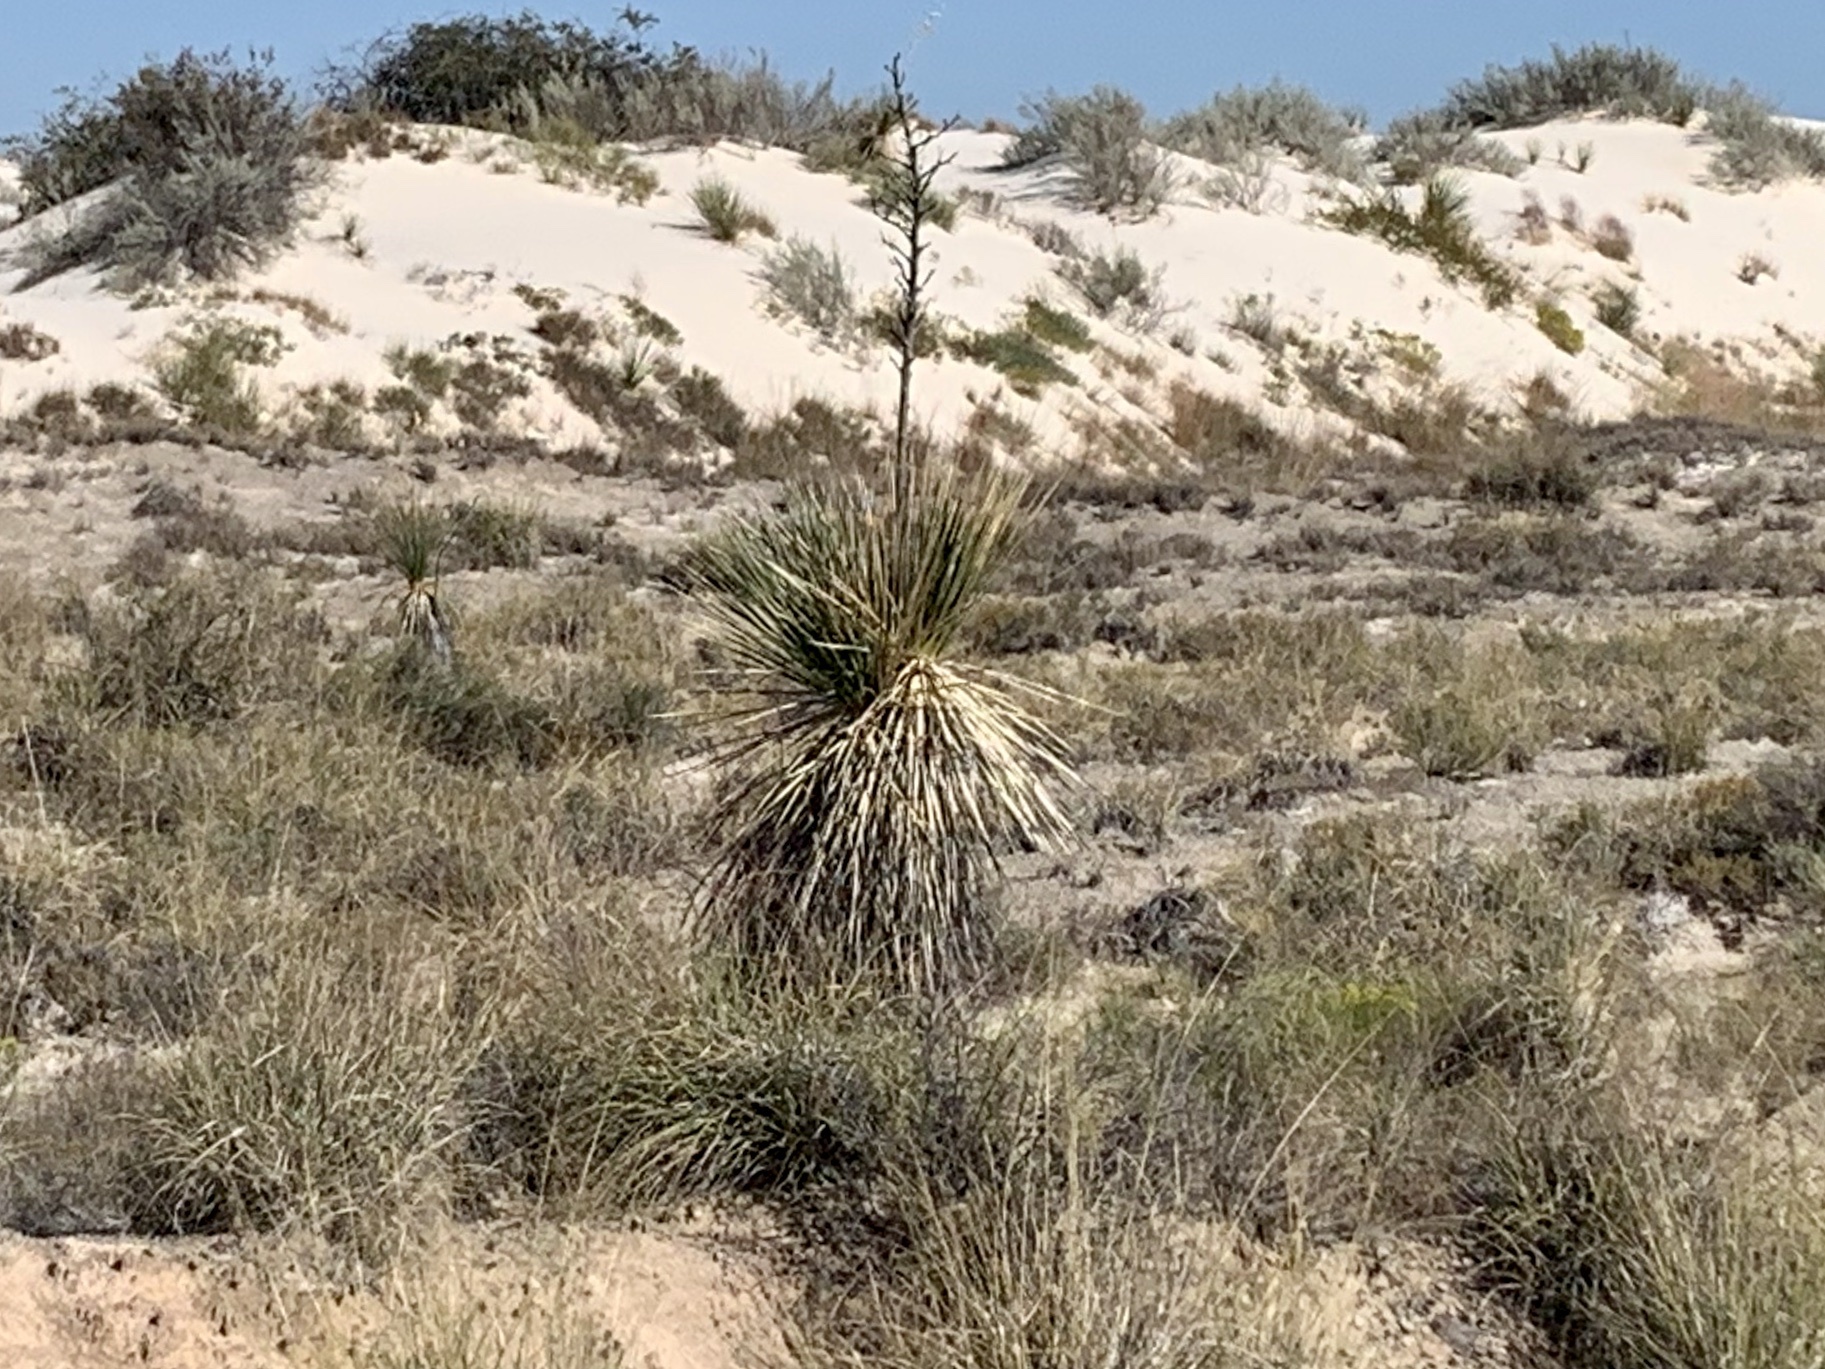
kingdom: Plantae
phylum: Tracheophyta
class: Liliopsida
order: Asparagales
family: Asparagaceae
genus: Yucca
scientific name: Yucca elata
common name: Palmella
